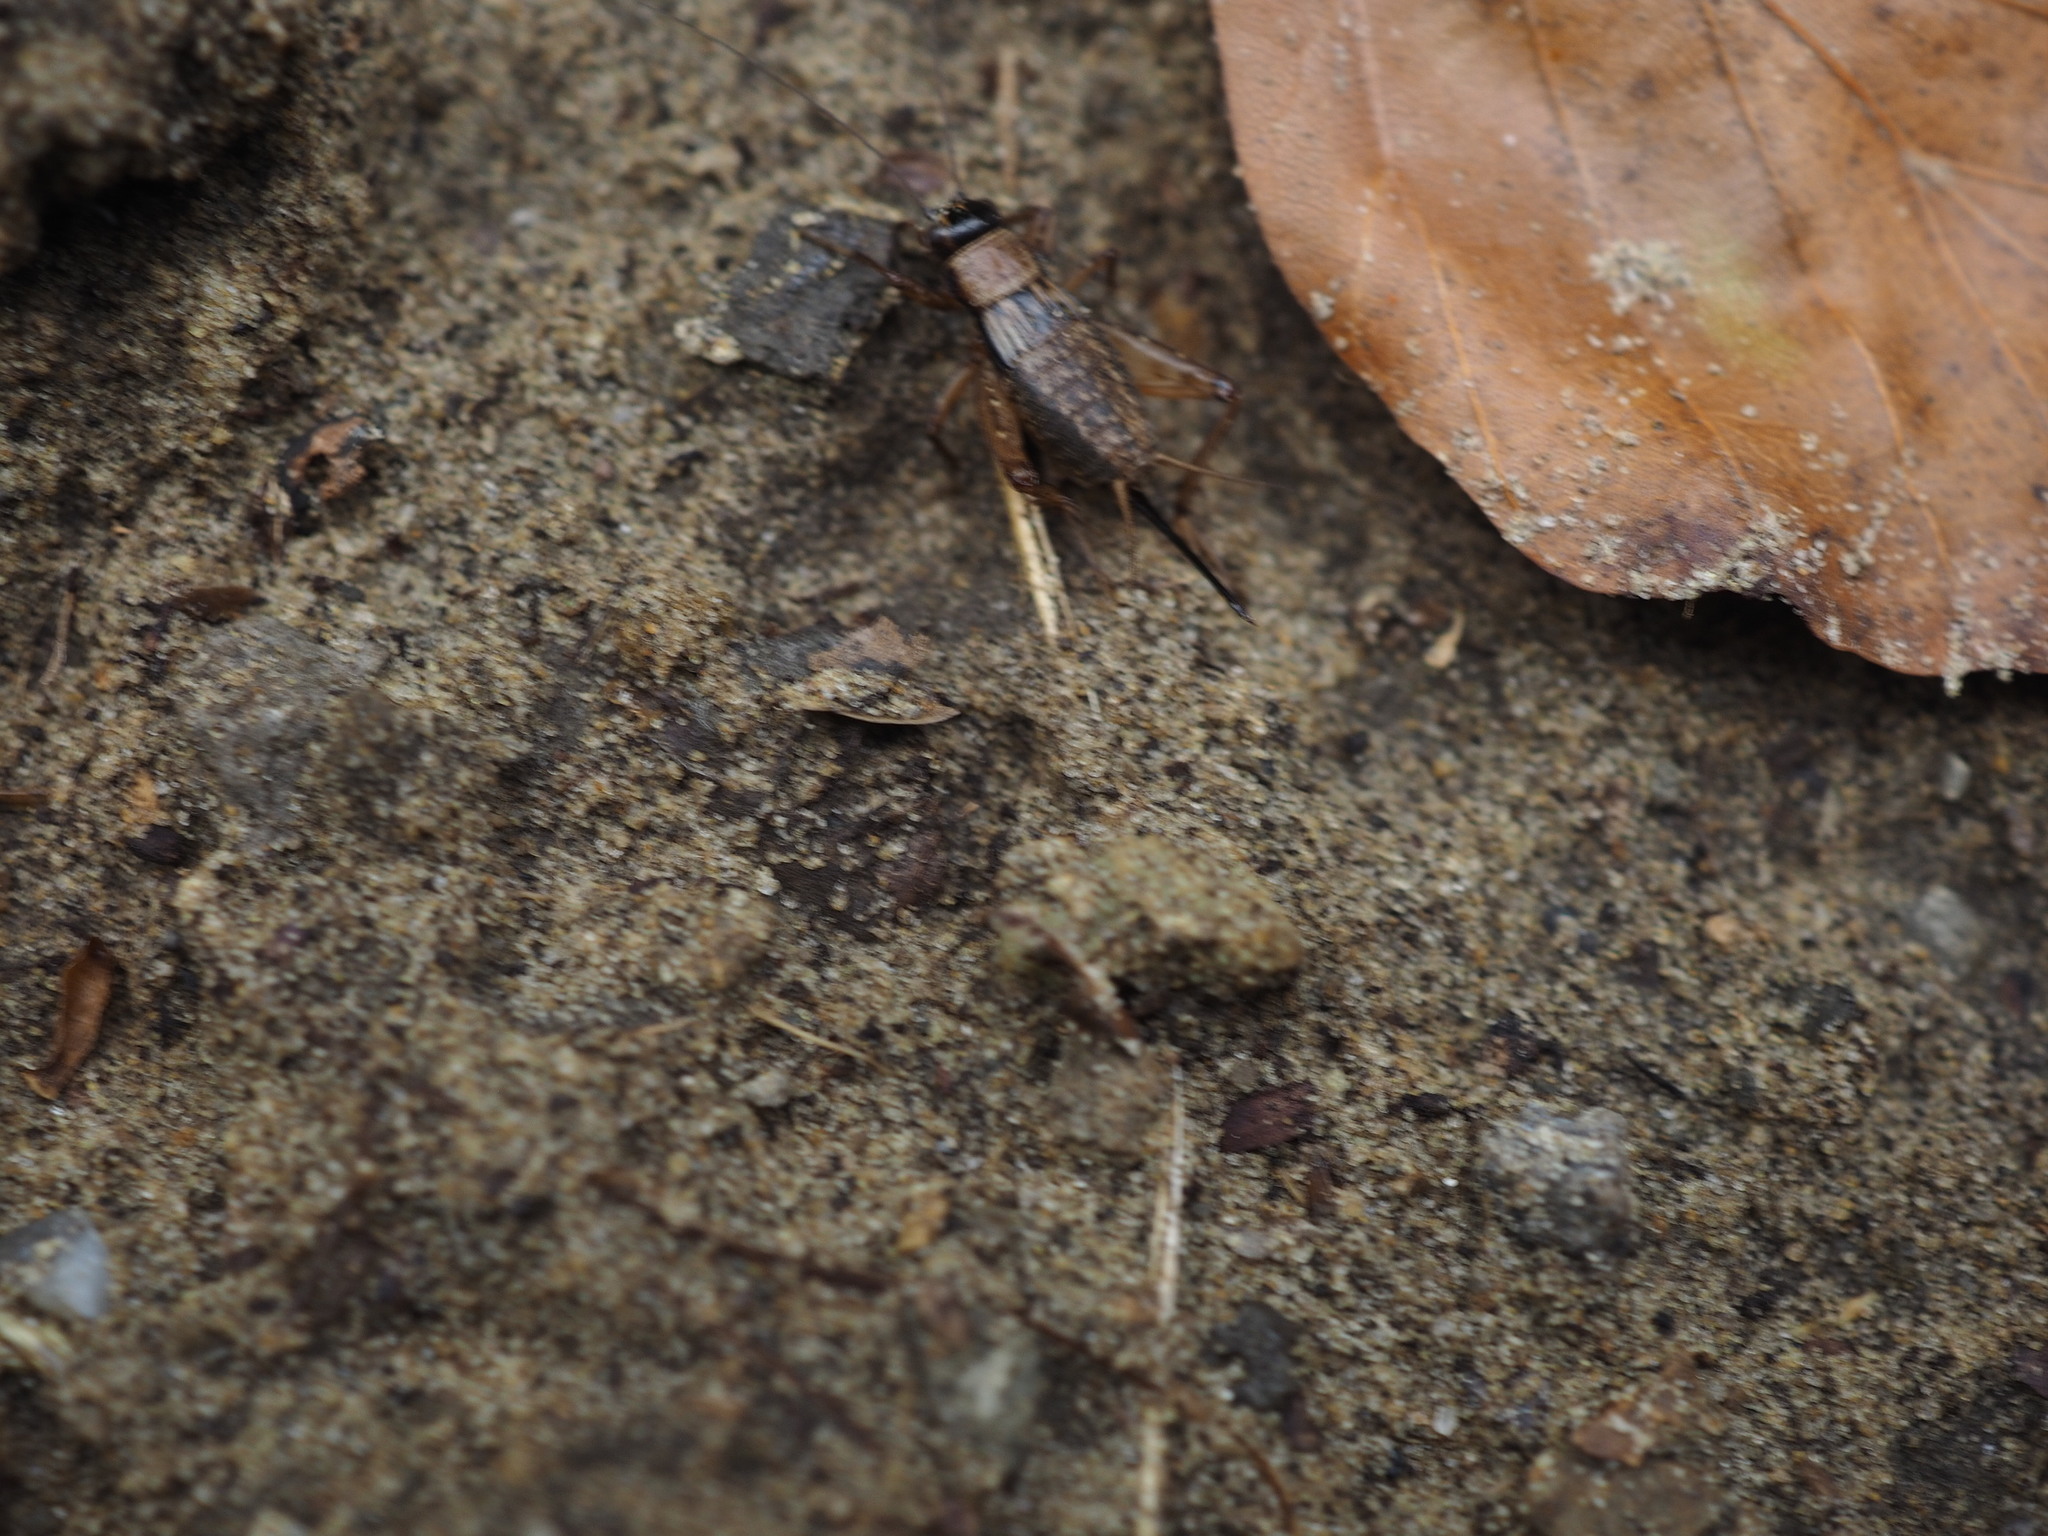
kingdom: Animalia
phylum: Arthropoda
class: Insecta
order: Orthoptera
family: Trigonidiidae
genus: Nemobius
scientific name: Nemobius sylvestris
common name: Wood-cricket
